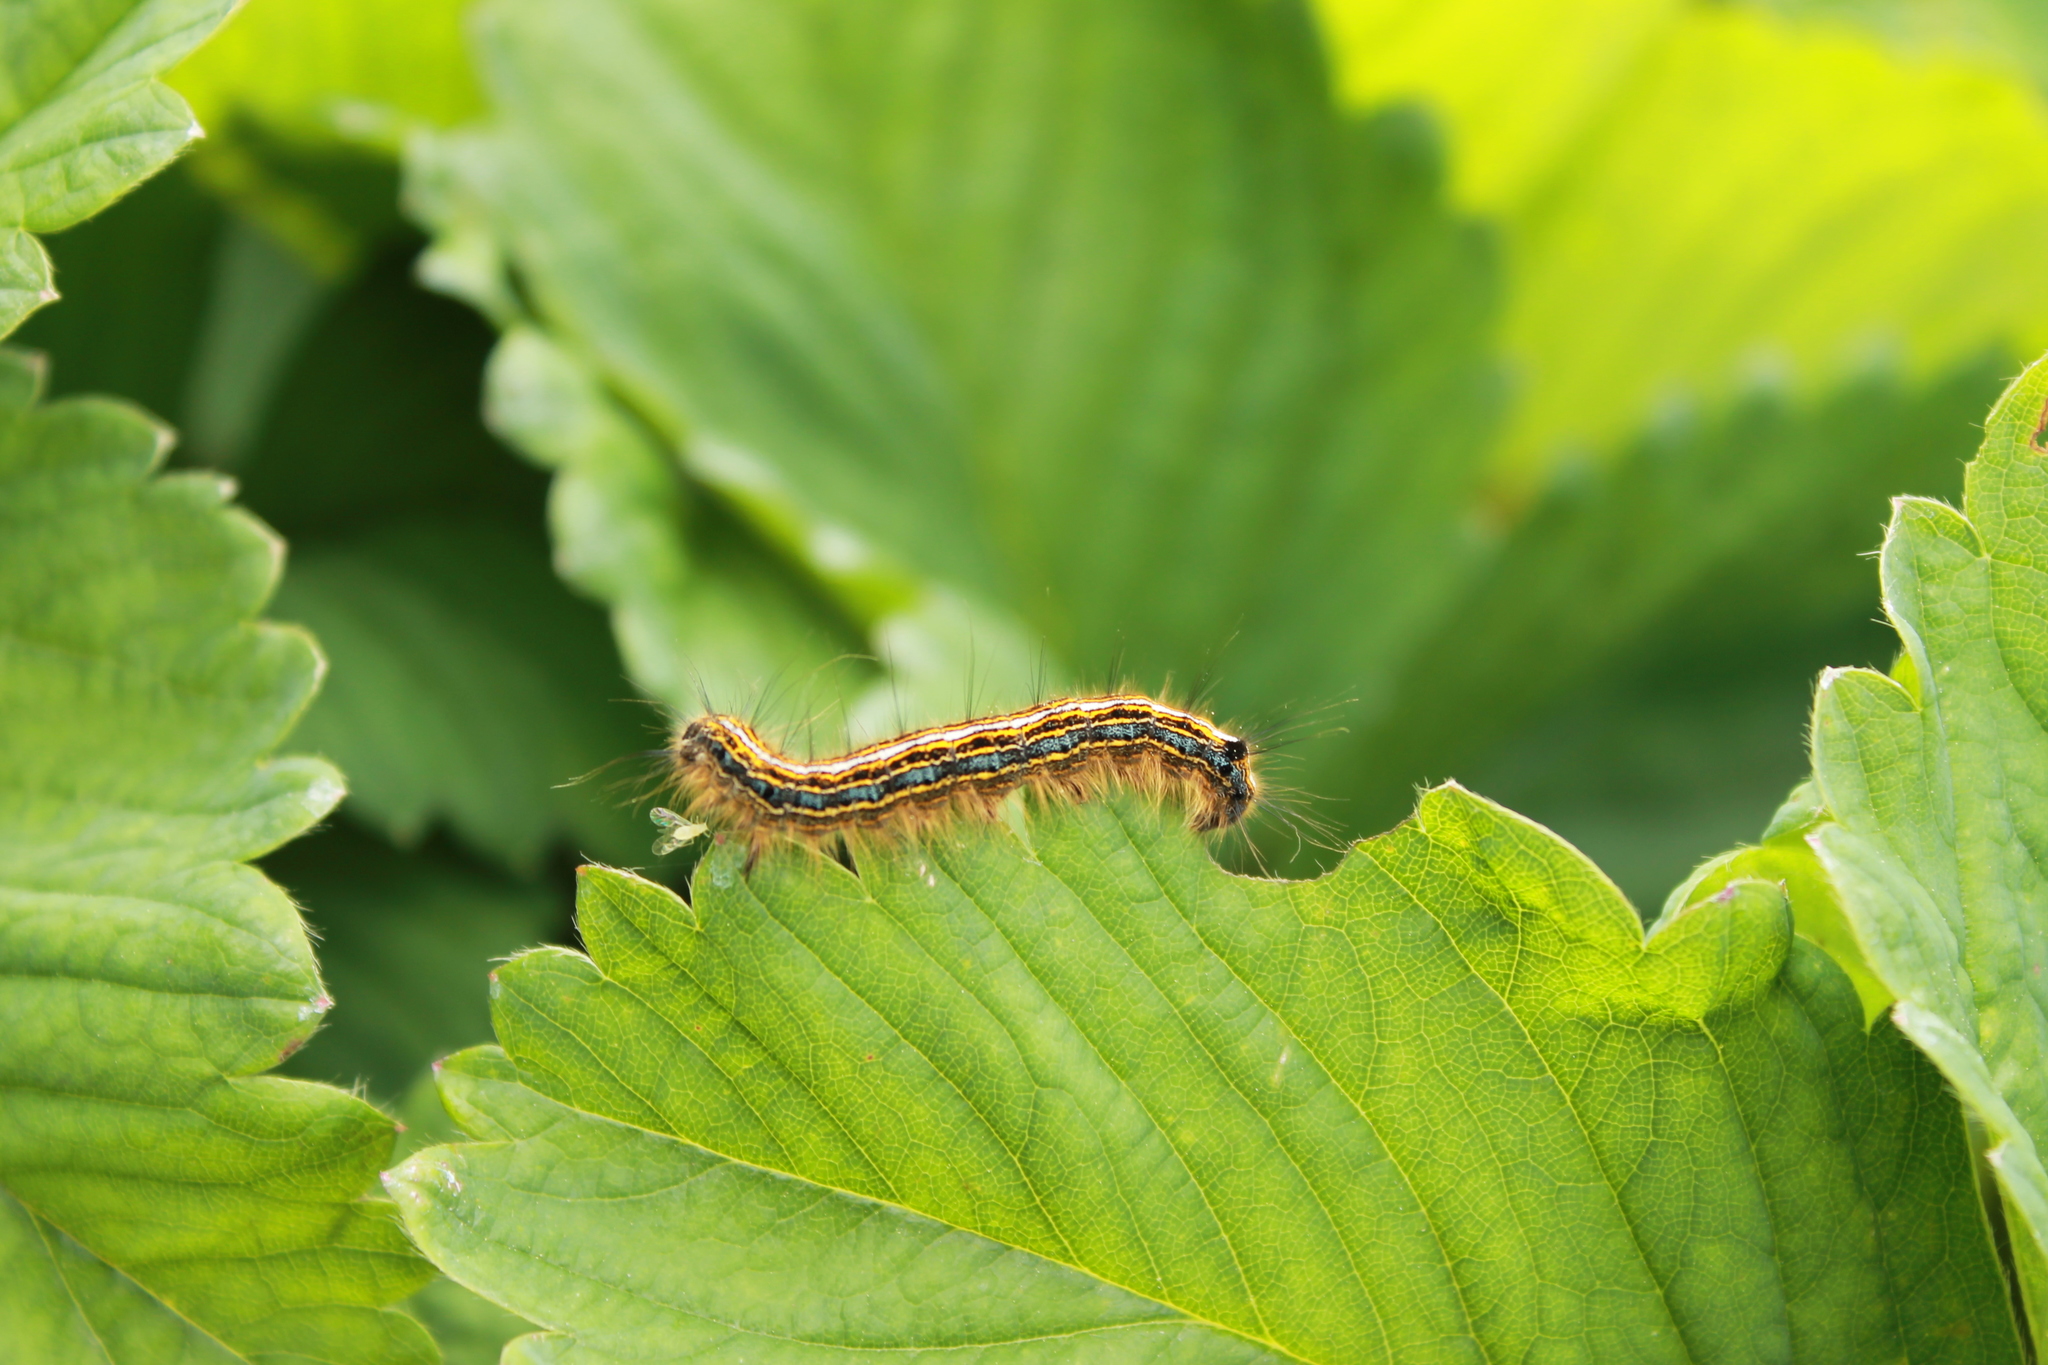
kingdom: Animalia
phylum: Arthropoda
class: Insecta
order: Lepidoptera
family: Lasiocampidae
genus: Malacosoma
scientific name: Malacosoma neustria
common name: The lackey
